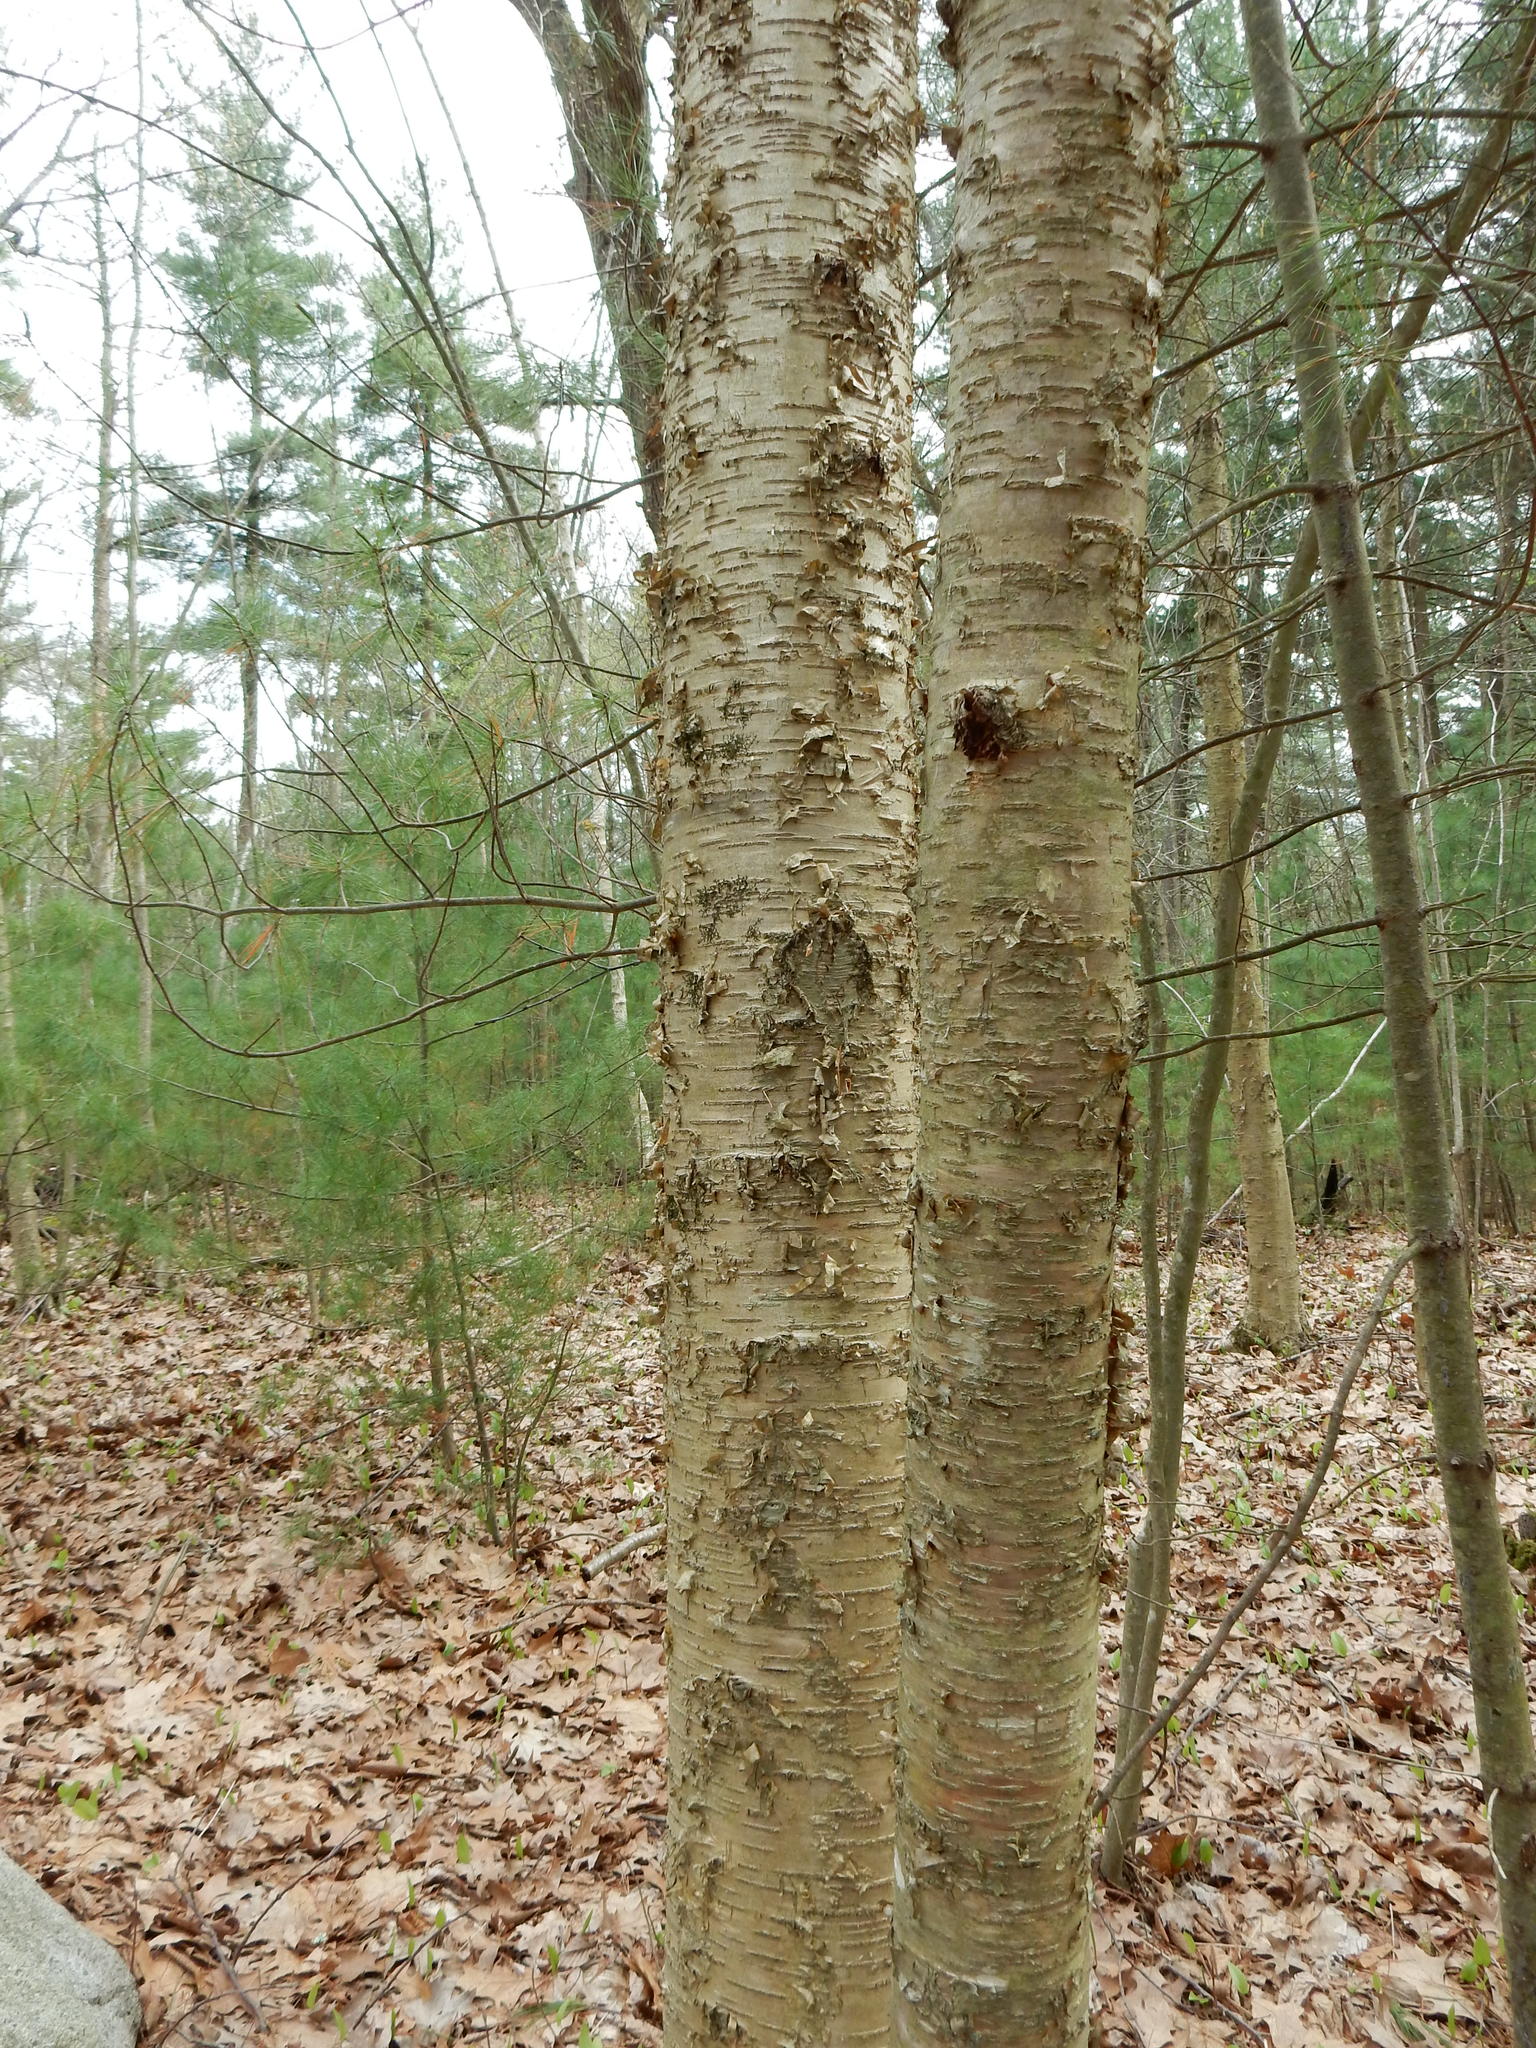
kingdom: Plantae
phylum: Tracheophyta
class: Magnoliopsida
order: Fagales
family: Betulaceae
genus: Betula
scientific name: Betula alleghaniensis
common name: Yellow birch
